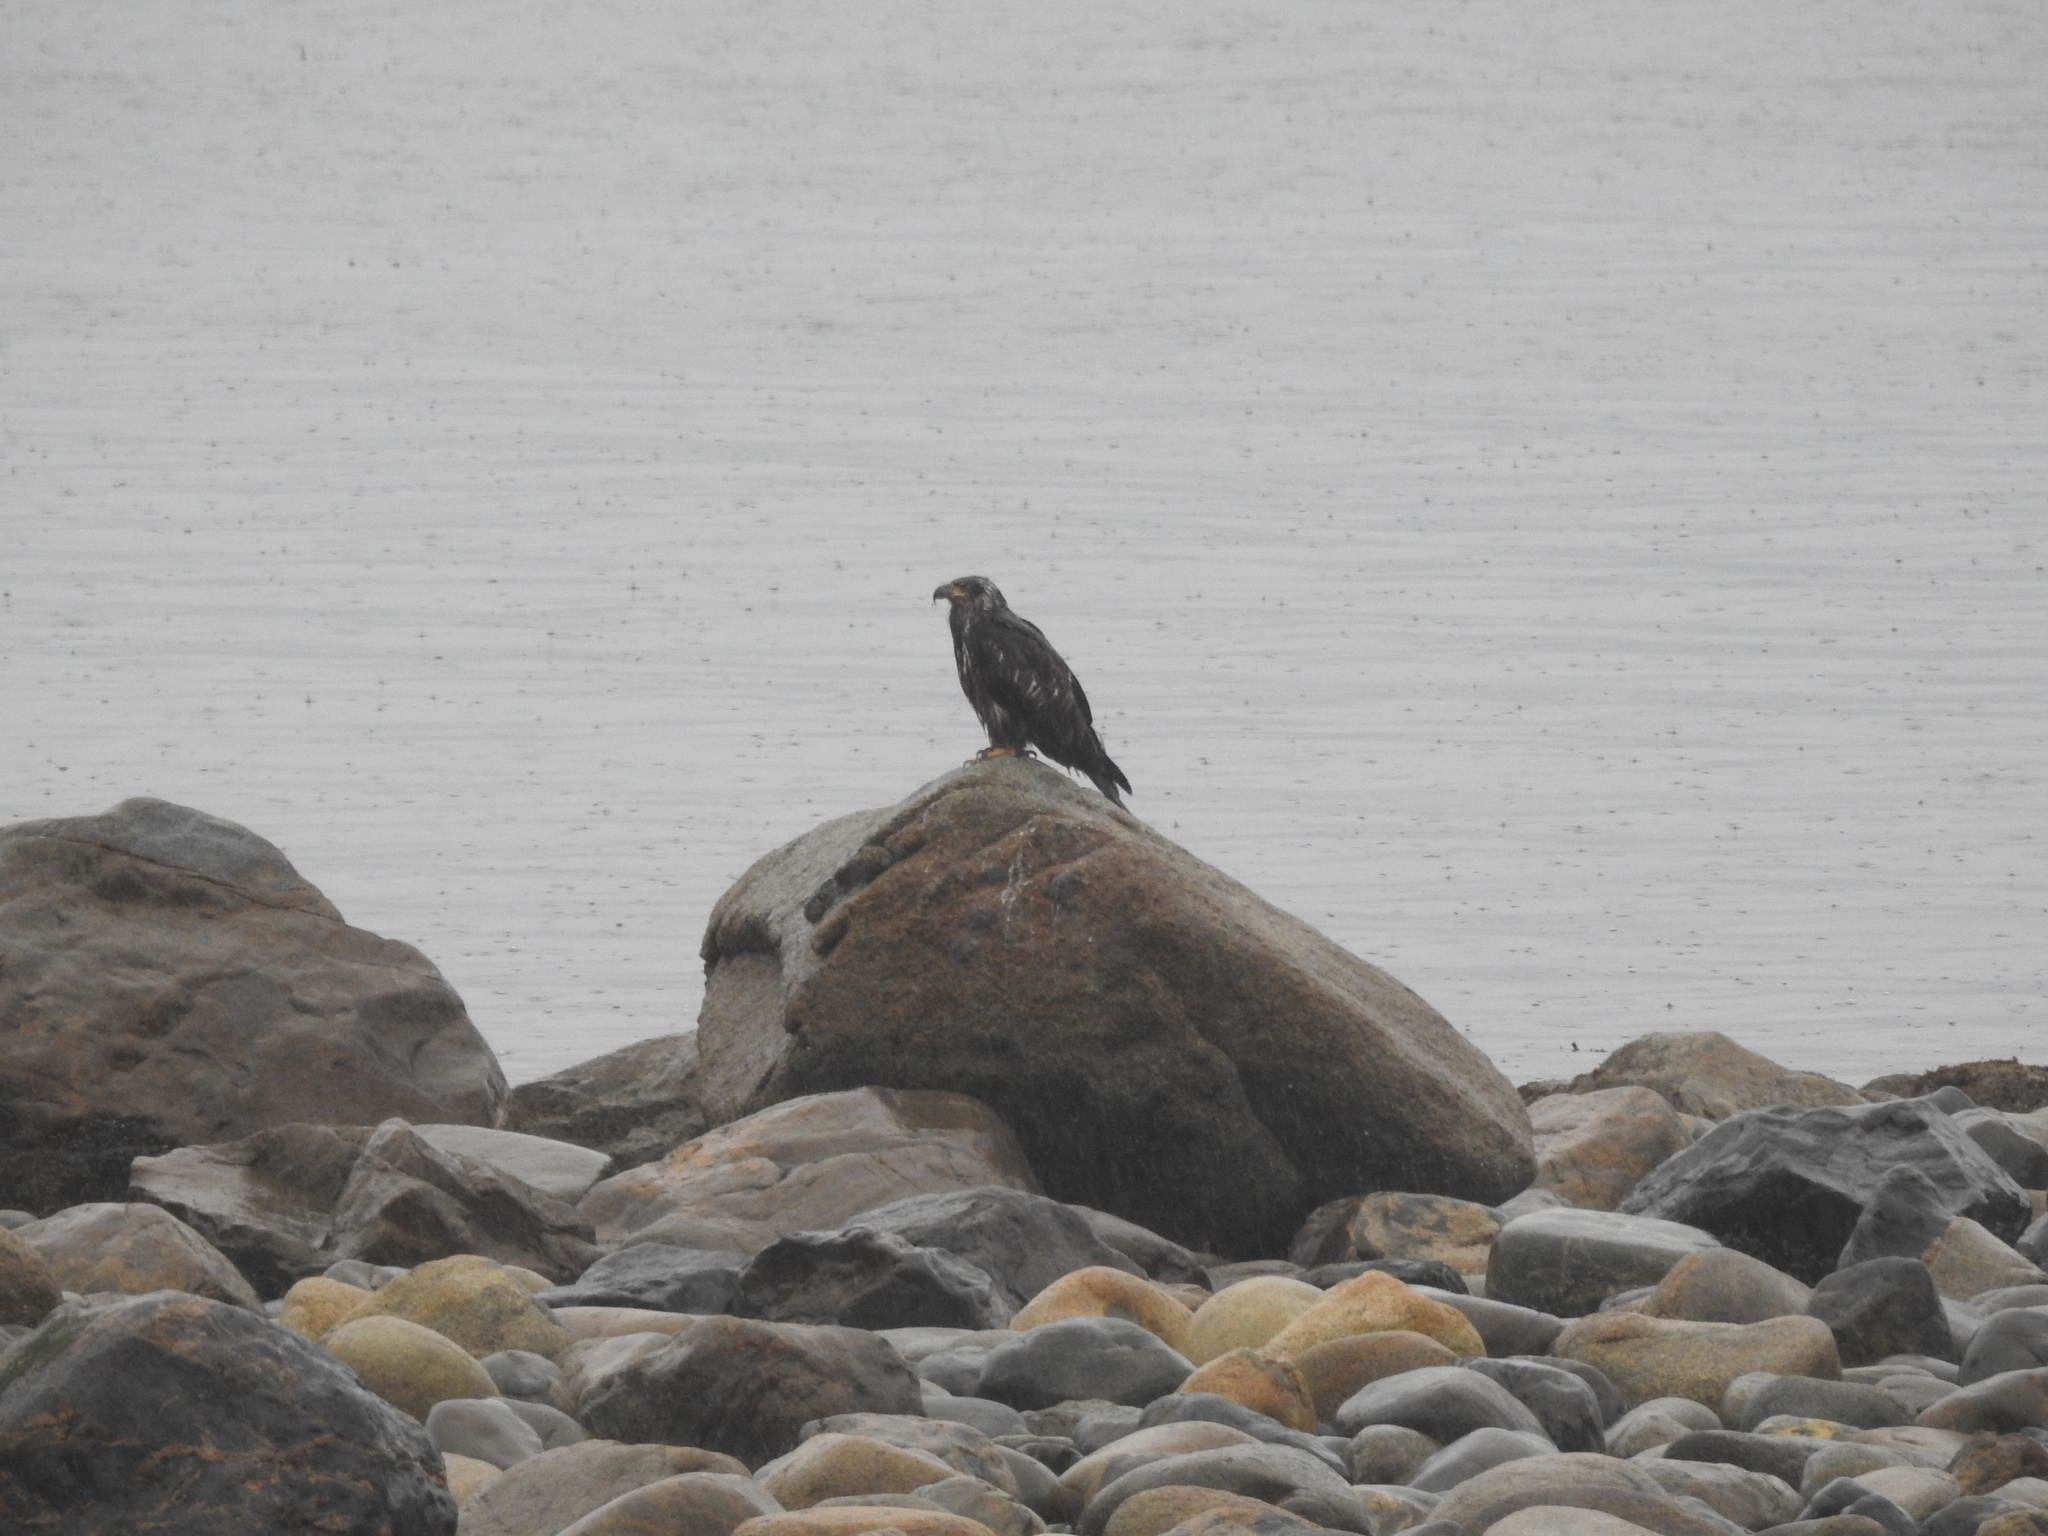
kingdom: Animalia
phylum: Chordata
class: Aves
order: Accipitriformes
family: Accipitridae
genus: Haliaeetus
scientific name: Haliaeetus leucocephalus
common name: Bald eagle
